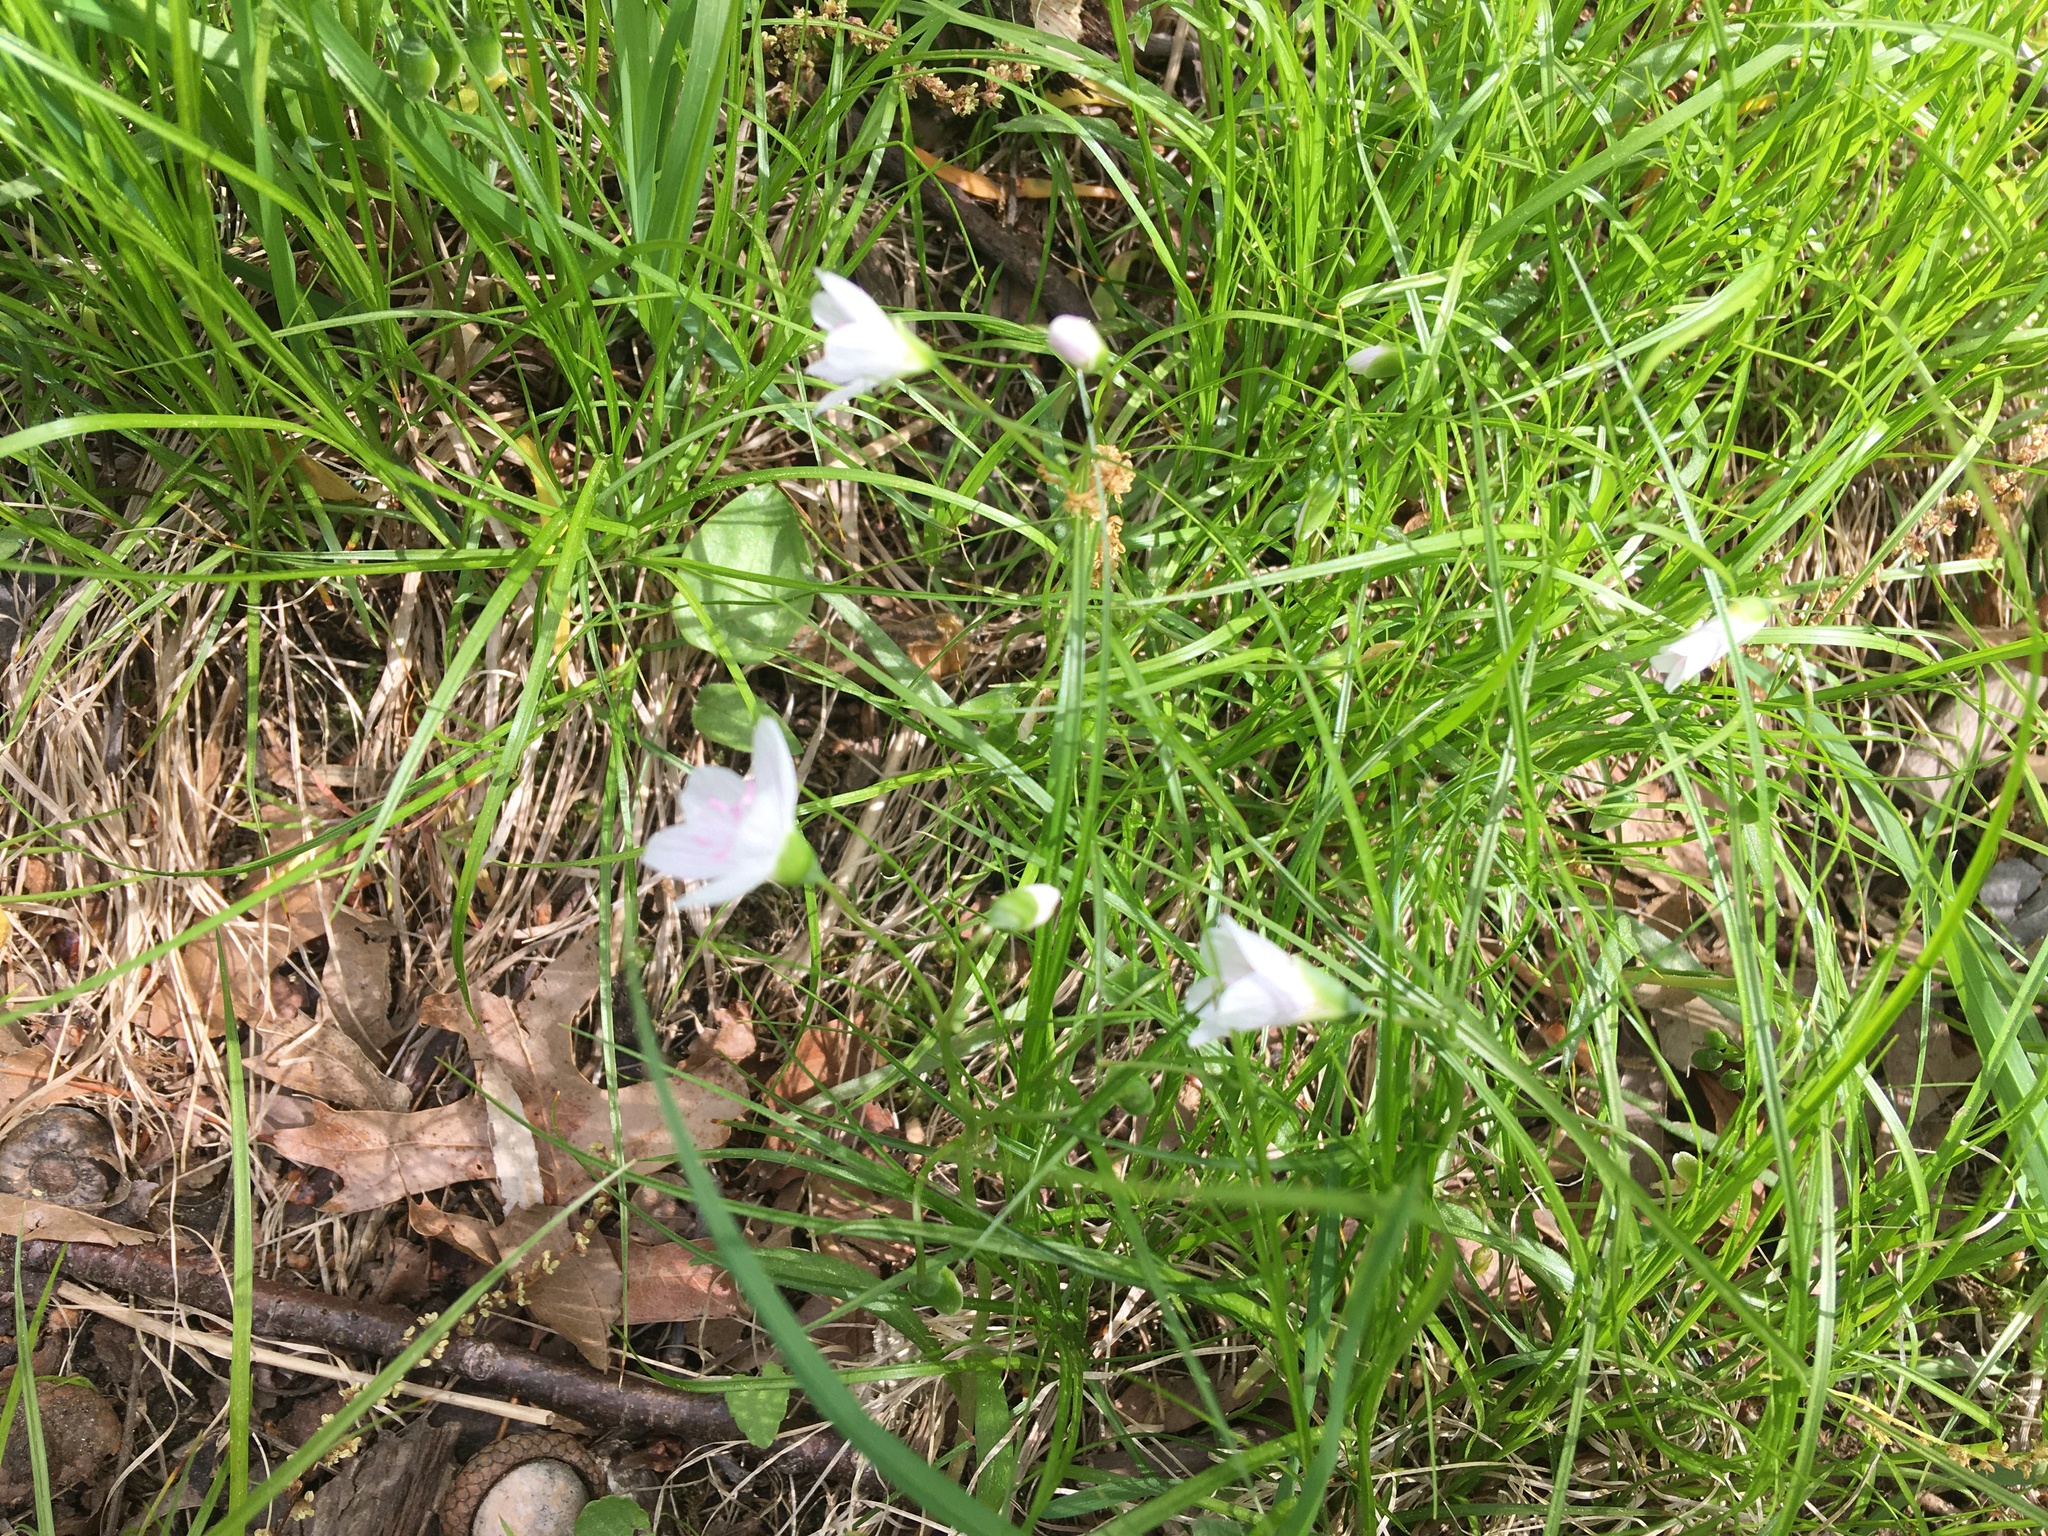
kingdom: Plantae
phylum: Tracheophyta
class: Magnoliopsida
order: Caryophyllales
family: Montiaceae
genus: Claytonia
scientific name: Claytonia virginica
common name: Virginia springbeauty
